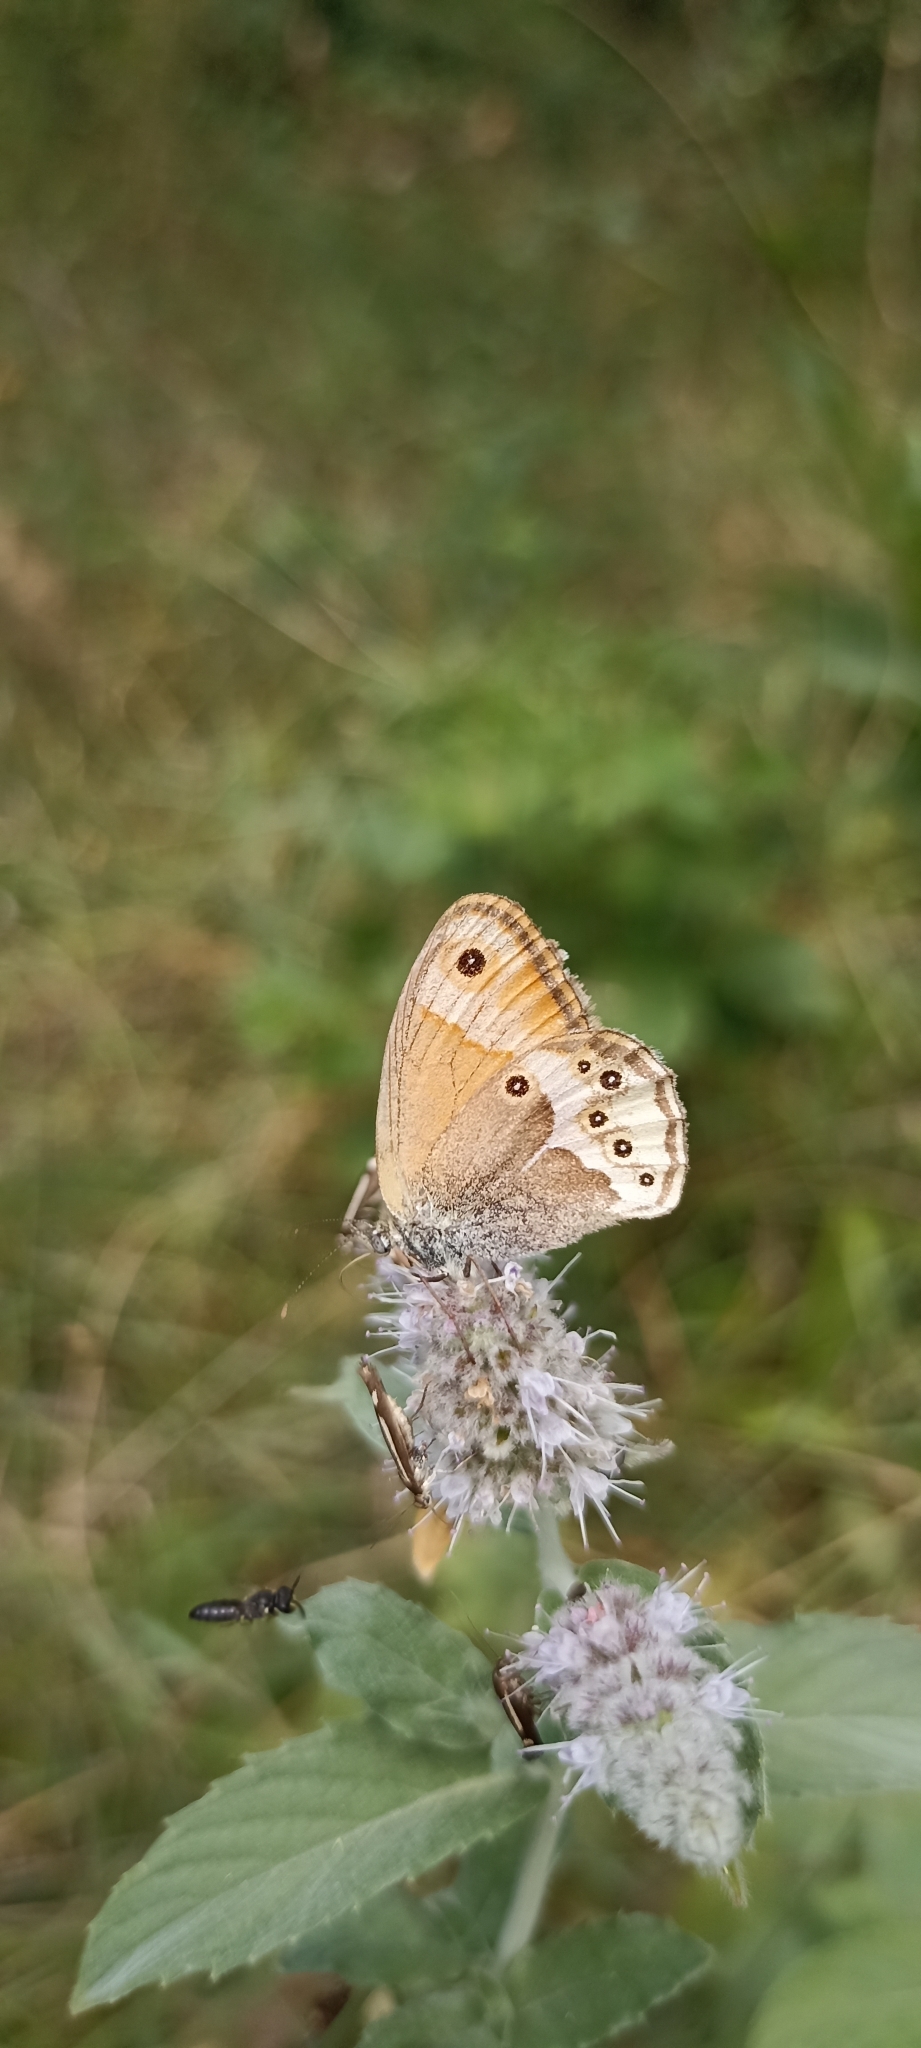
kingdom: Animalia
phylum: Arthropoda
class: Insecta
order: Lepidoptera
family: Nymphalidae
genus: Coenonympha
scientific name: Coenonympha dorus
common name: Dusky heath
